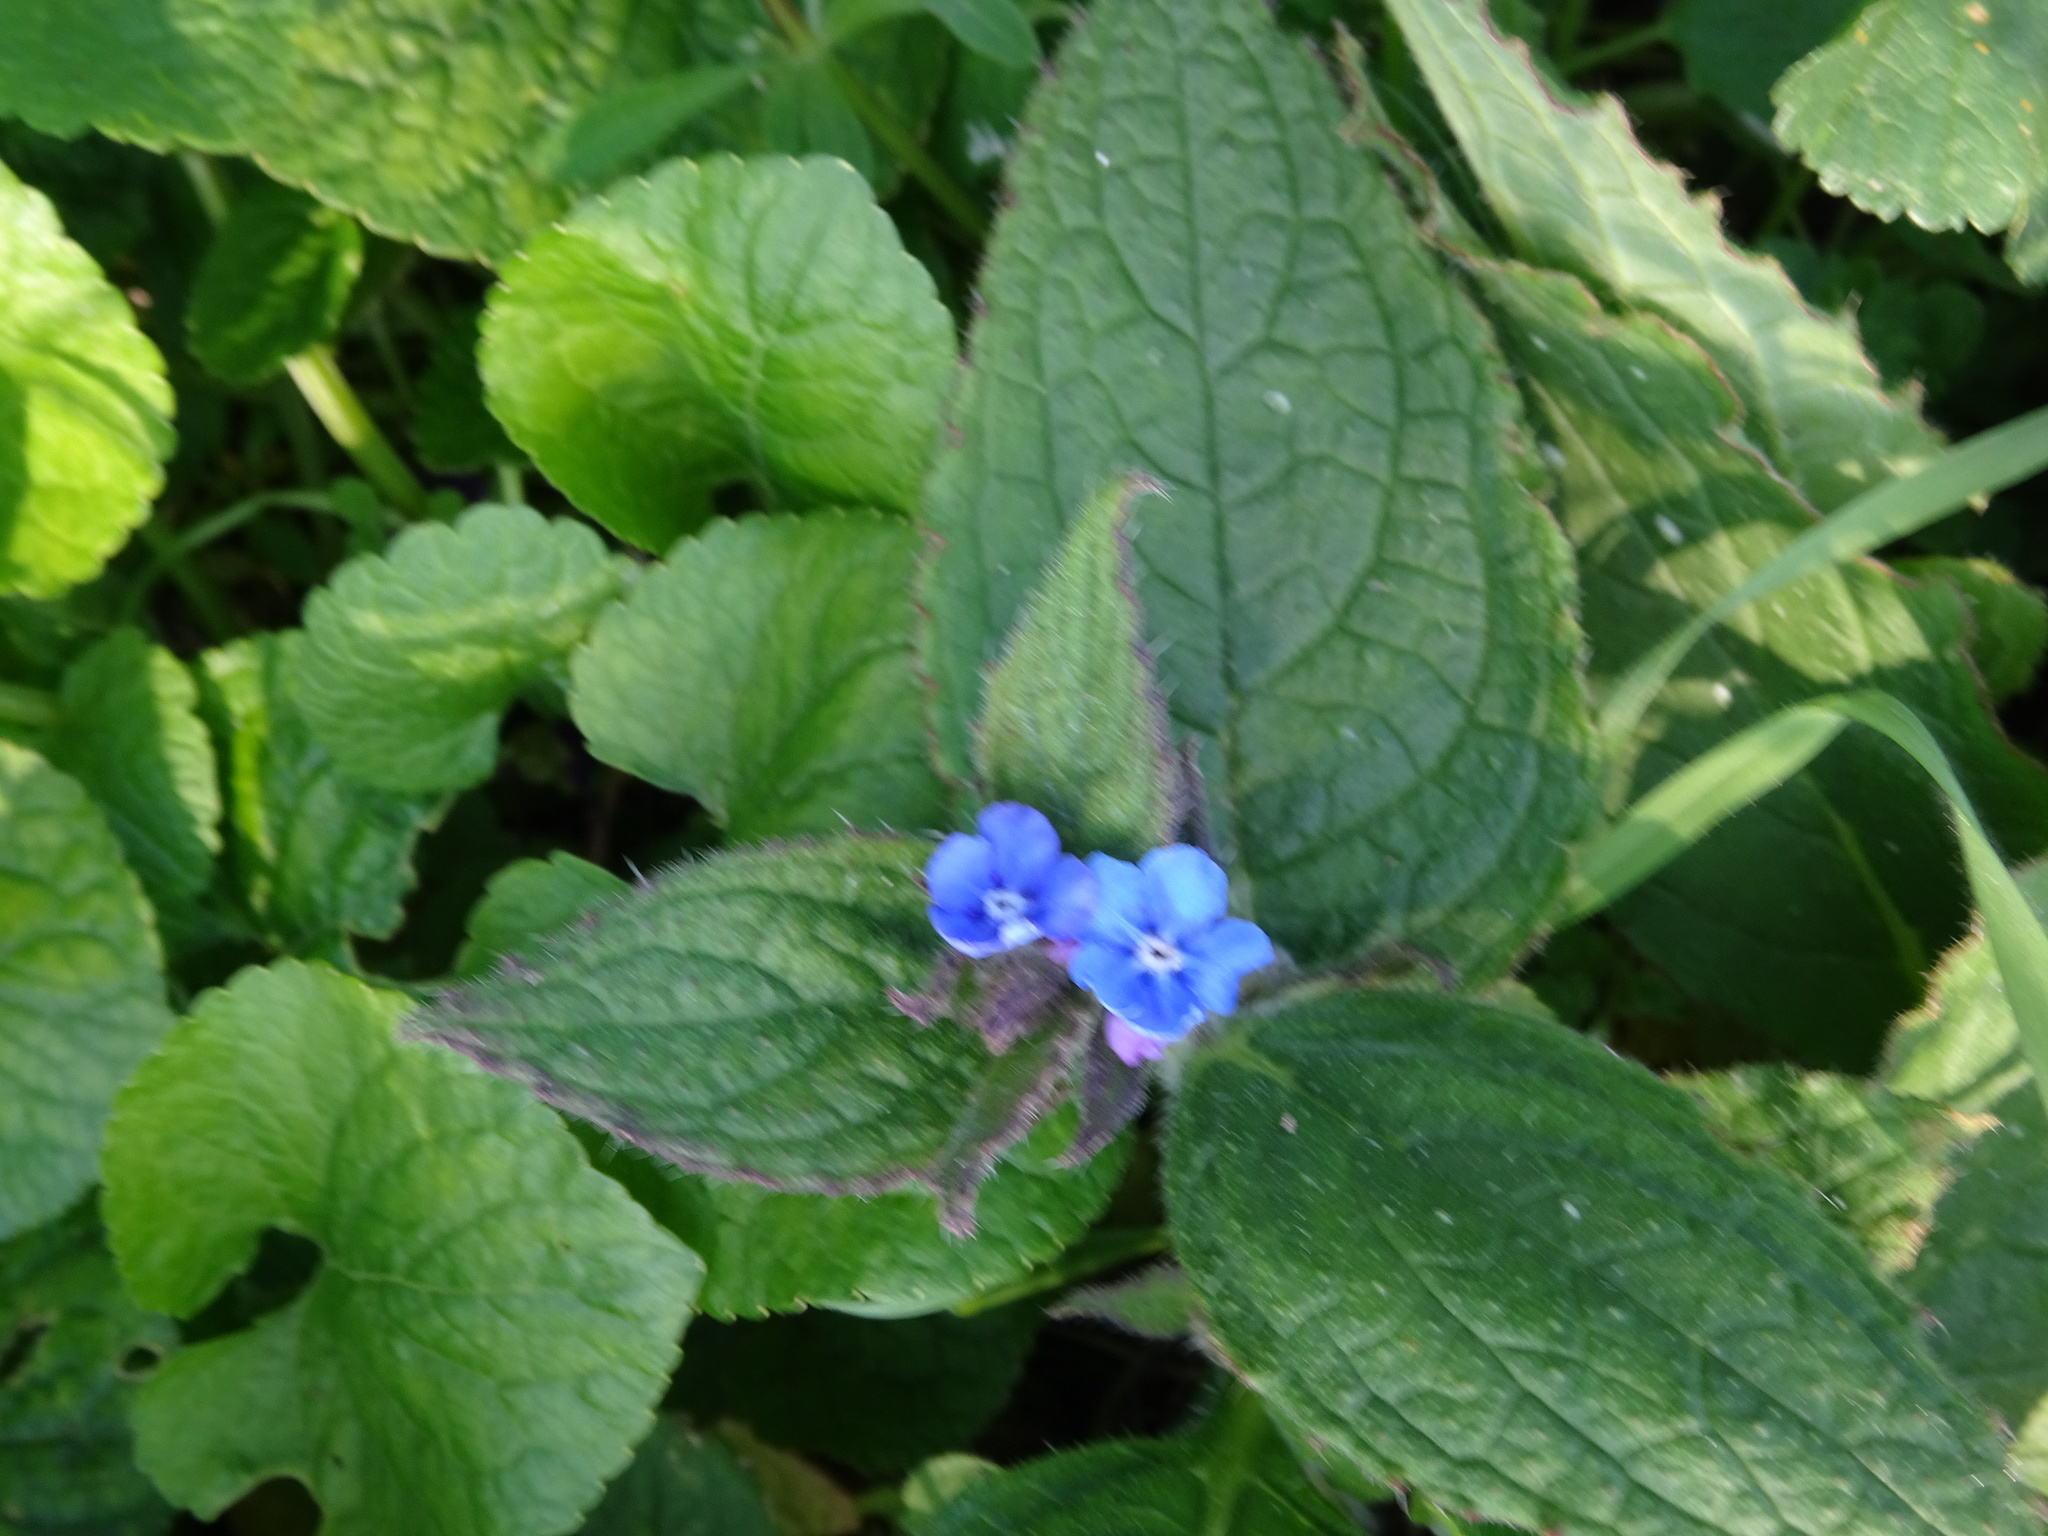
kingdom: Plantae
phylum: Tracheophyta
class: Magnoliopsida
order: Boraginales
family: Boraginaceae
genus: Pentaglottis
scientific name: Pentaglottis sempervirens
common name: Green alkanet
